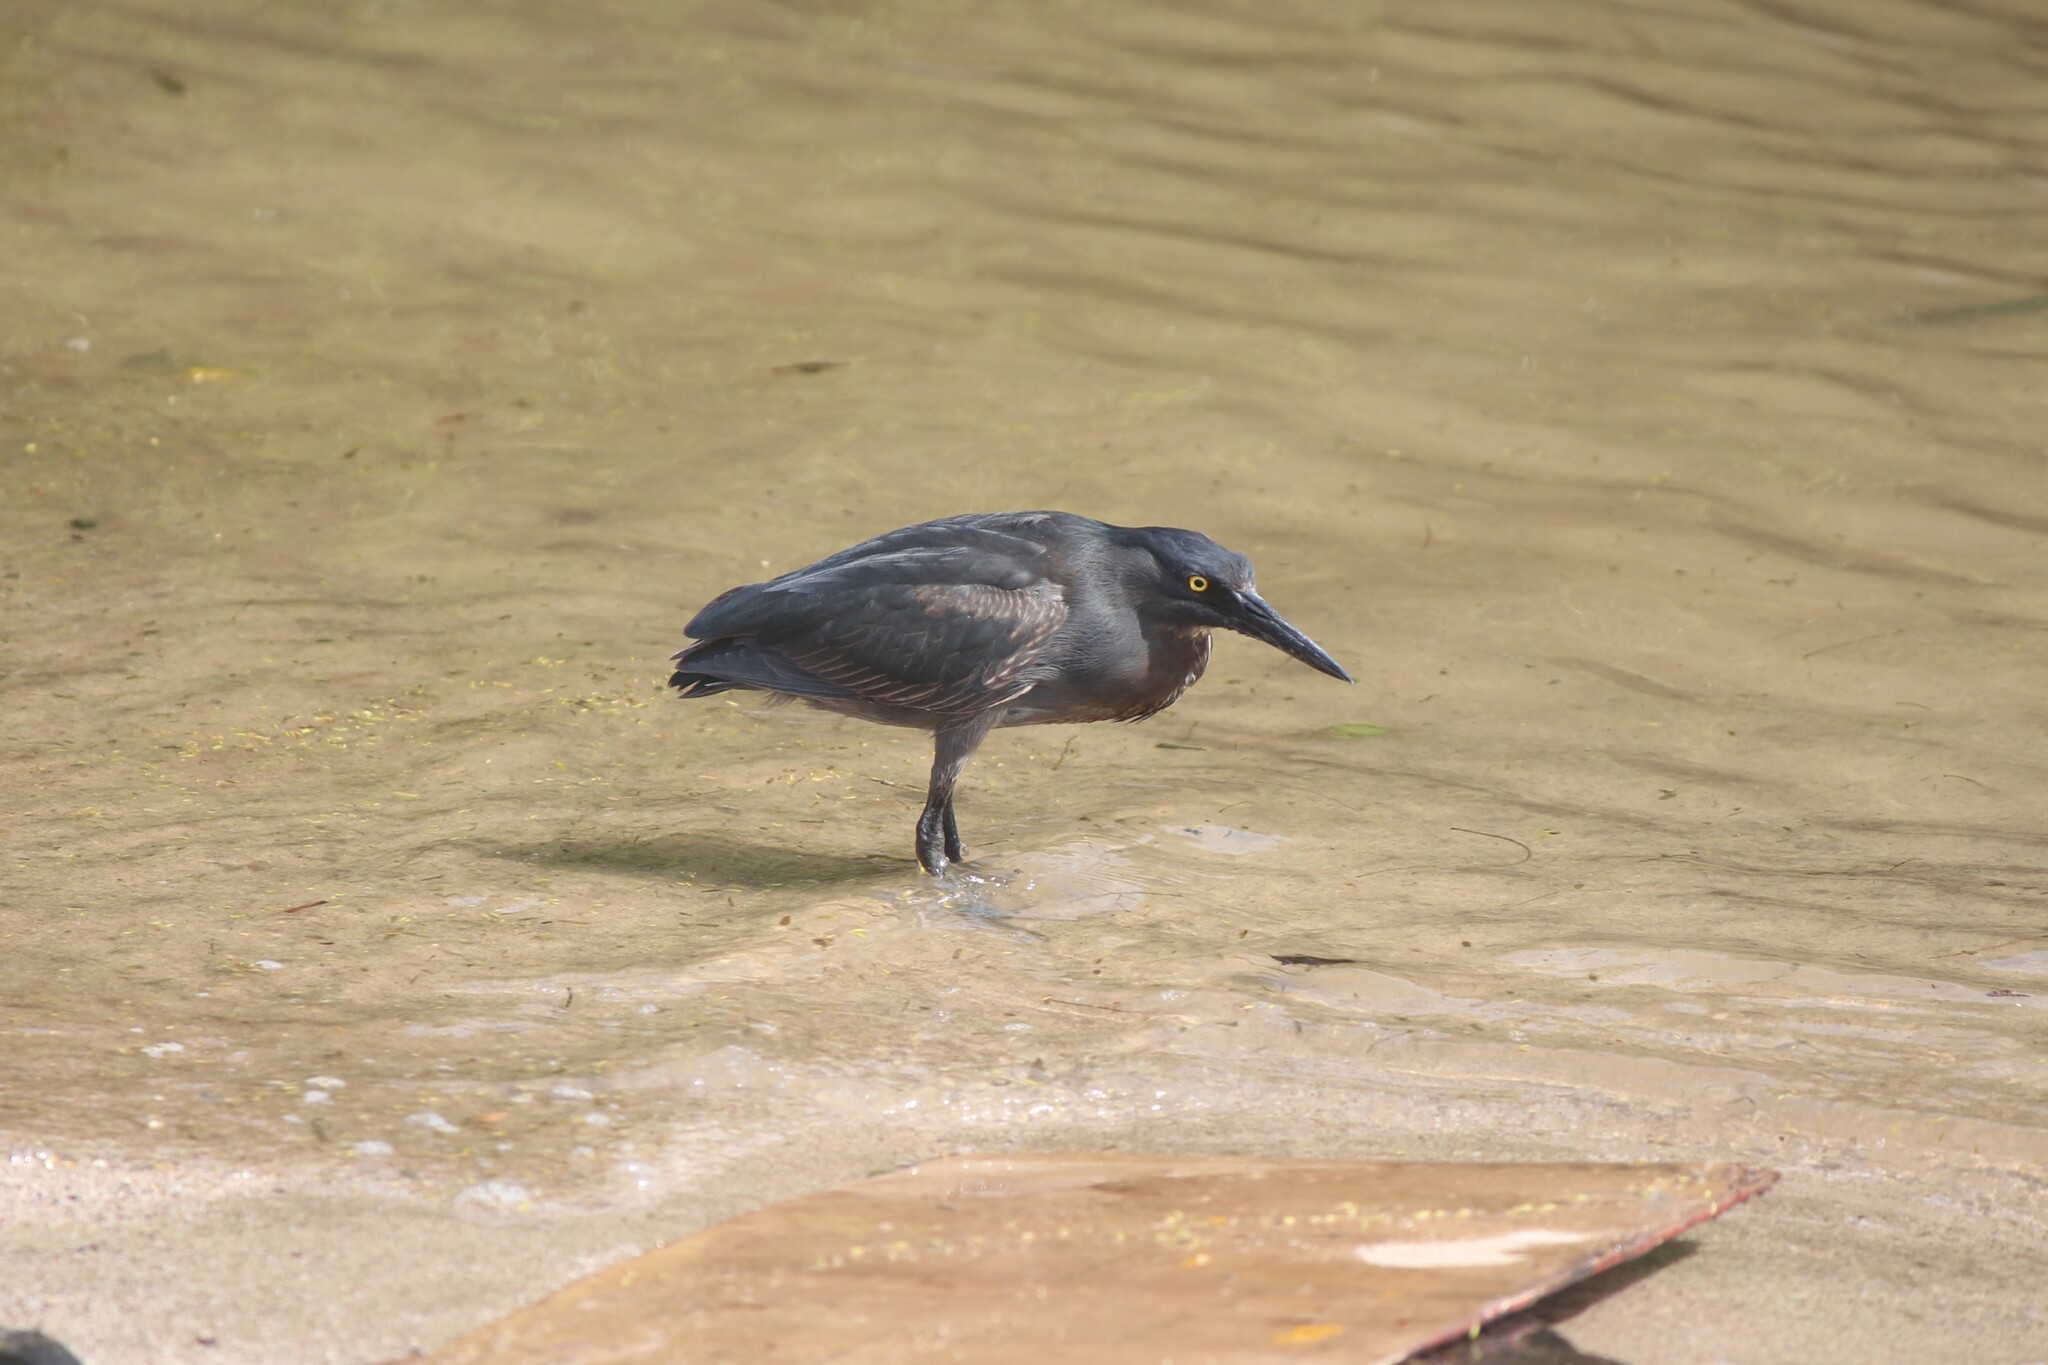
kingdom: Animalia
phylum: Chordata
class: Aves
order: Pelecaniformes
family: Ardeidae
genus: Butorides
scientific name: Butorides striata
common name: Striated heron
